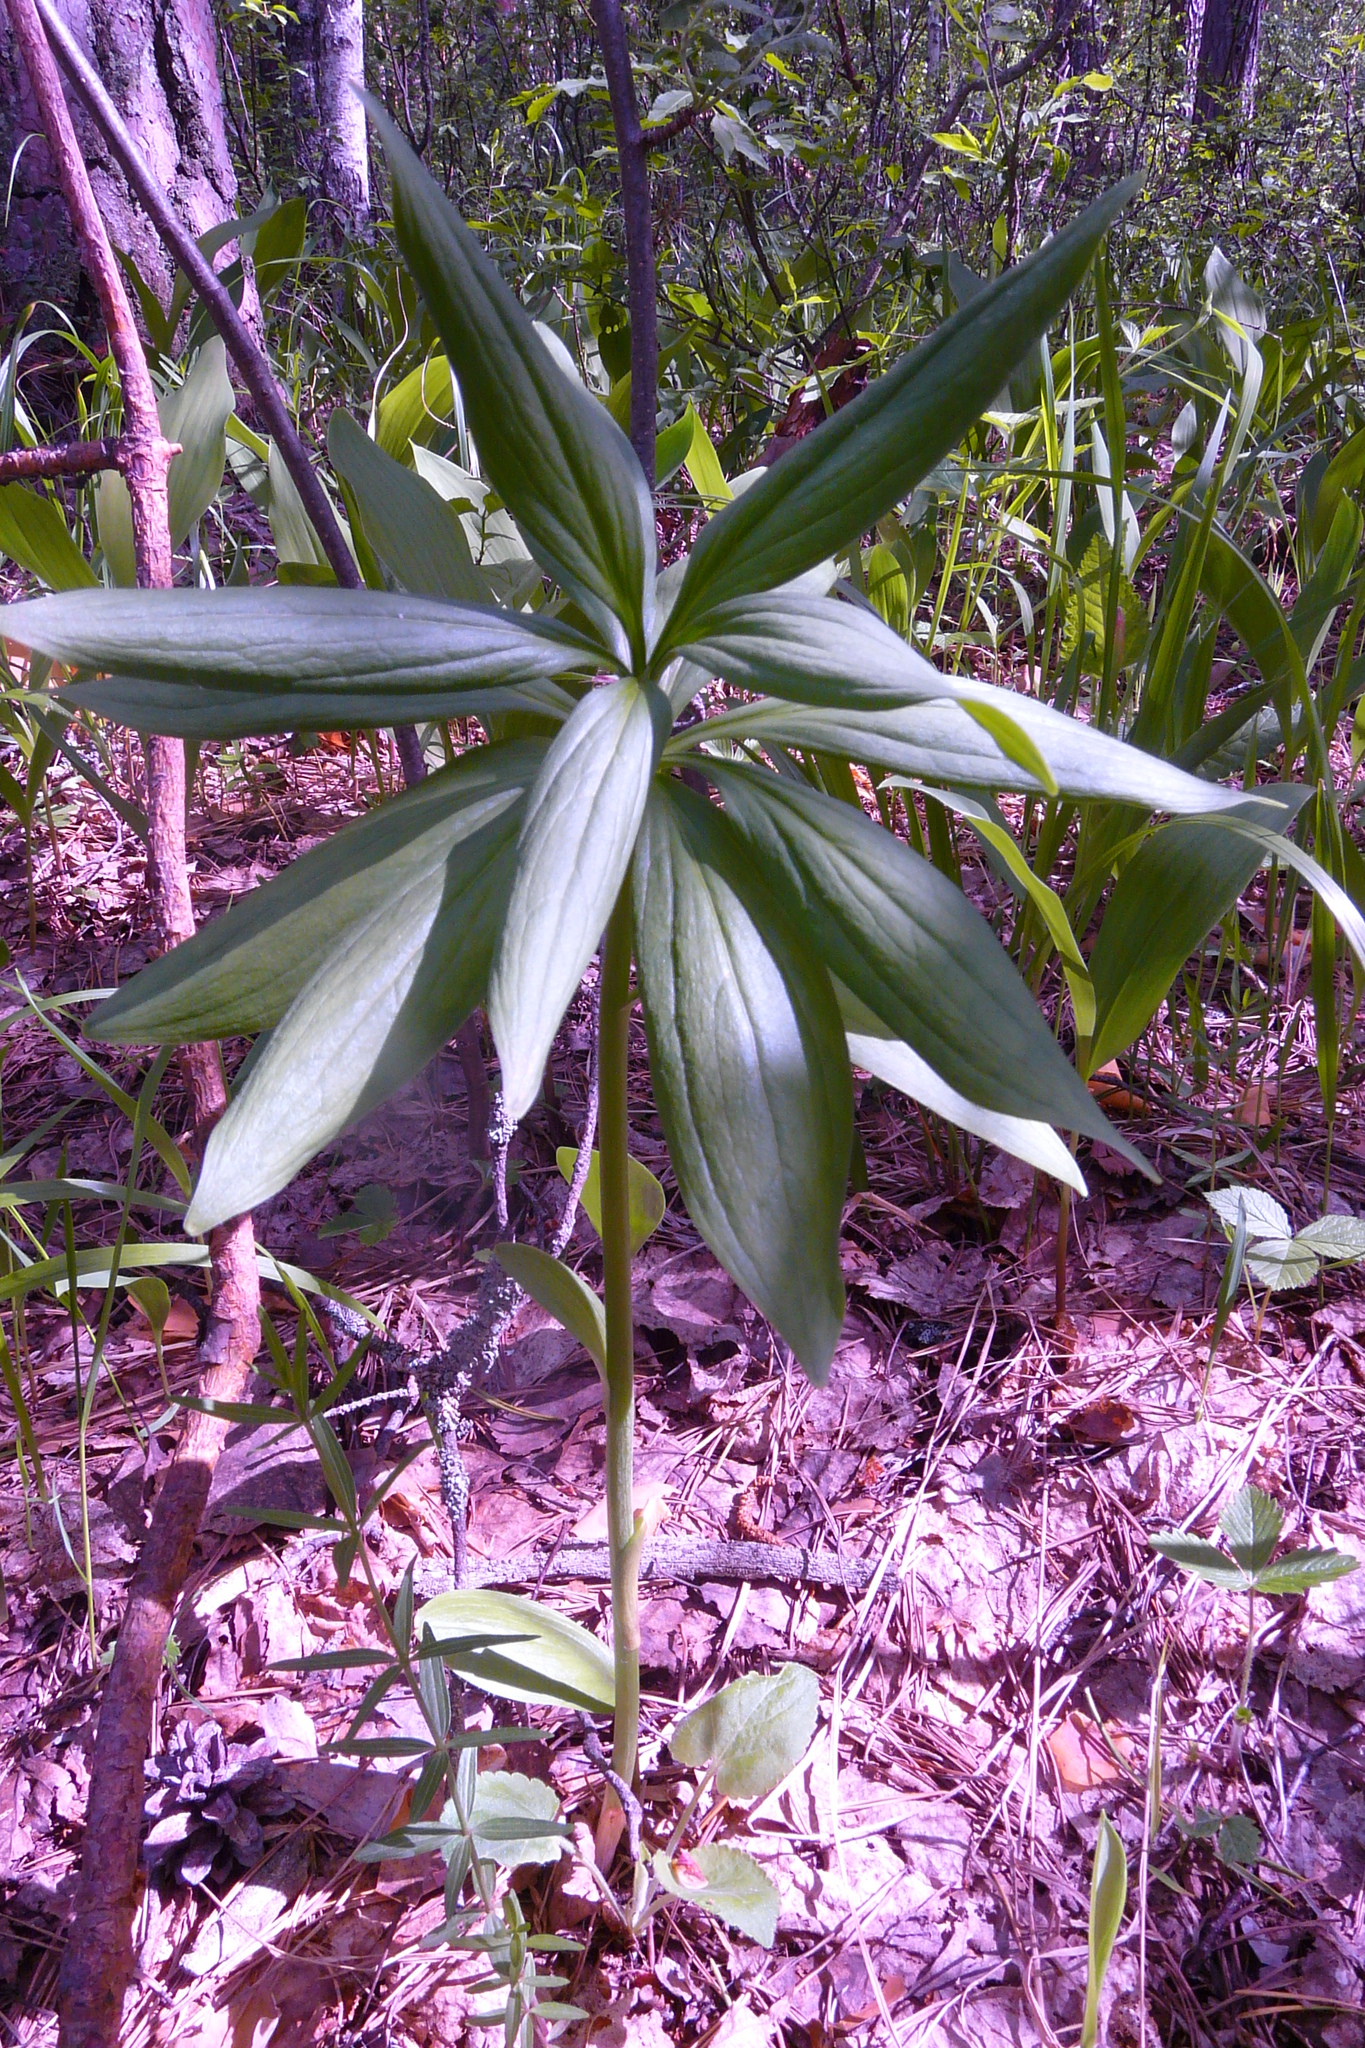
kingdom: Plantae
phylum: Tracheophyta
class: Liliopsida
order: Liliales
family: Liliaceae
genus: Lilium
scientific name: Lilium martagon
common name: Martagon lily
